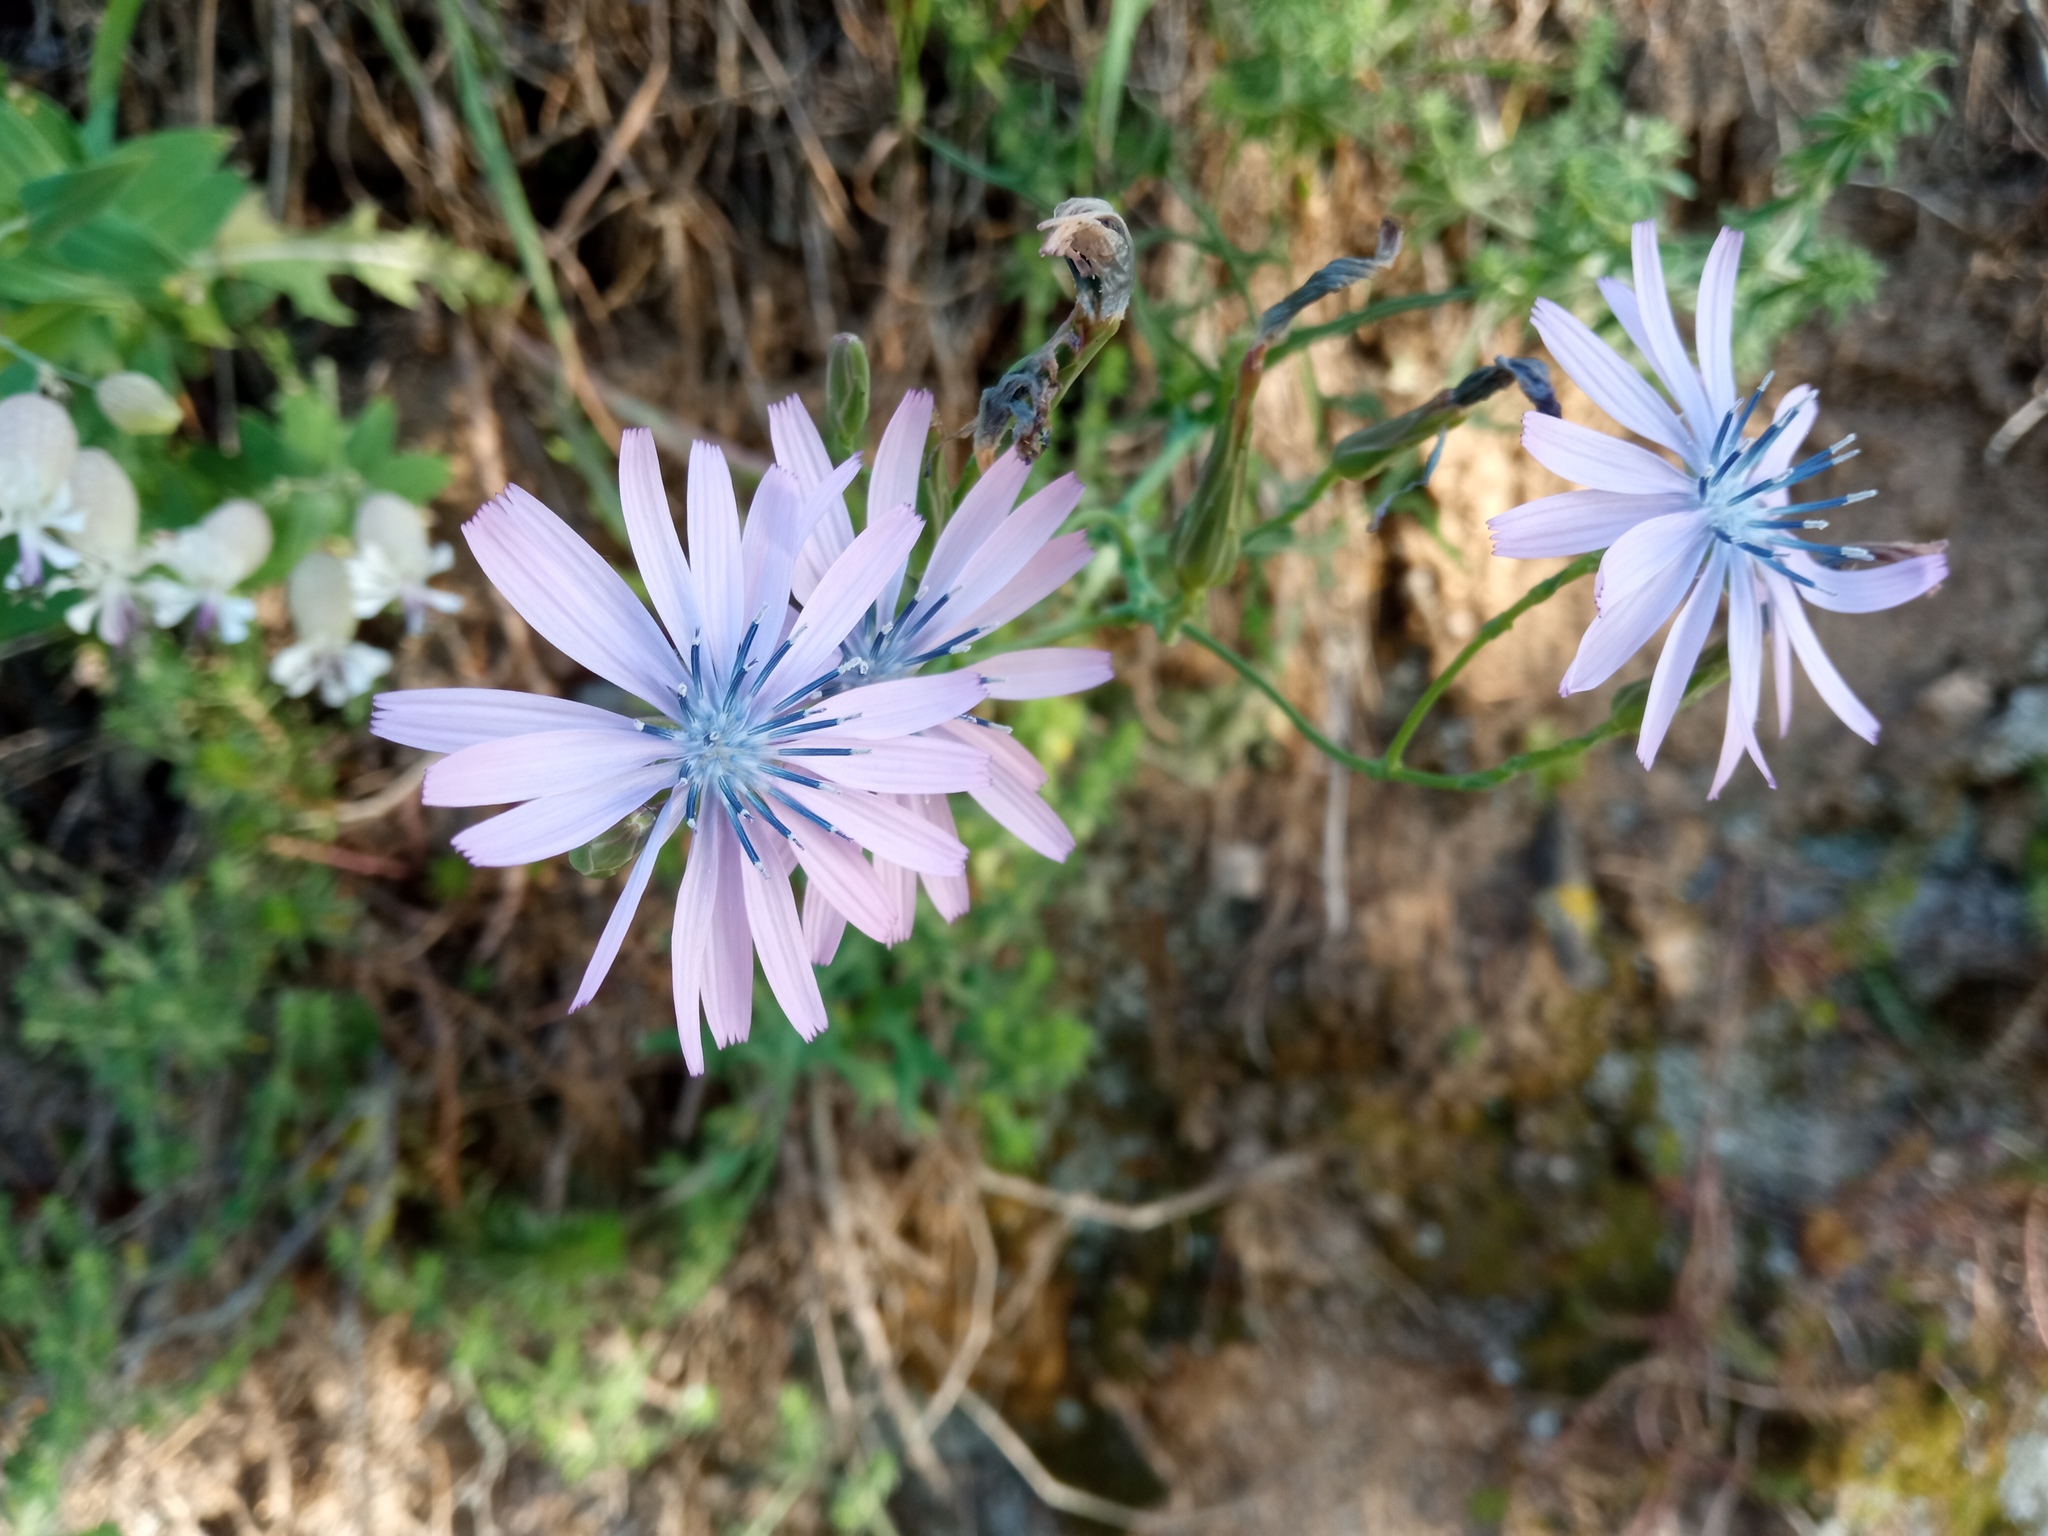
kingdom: Plantae
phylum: Tracheophyta
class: Magnoliopsida
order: Asterales
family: Asteraceae
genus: Lactuca
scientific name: Lactuca perennis
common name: Mountain lettuce
